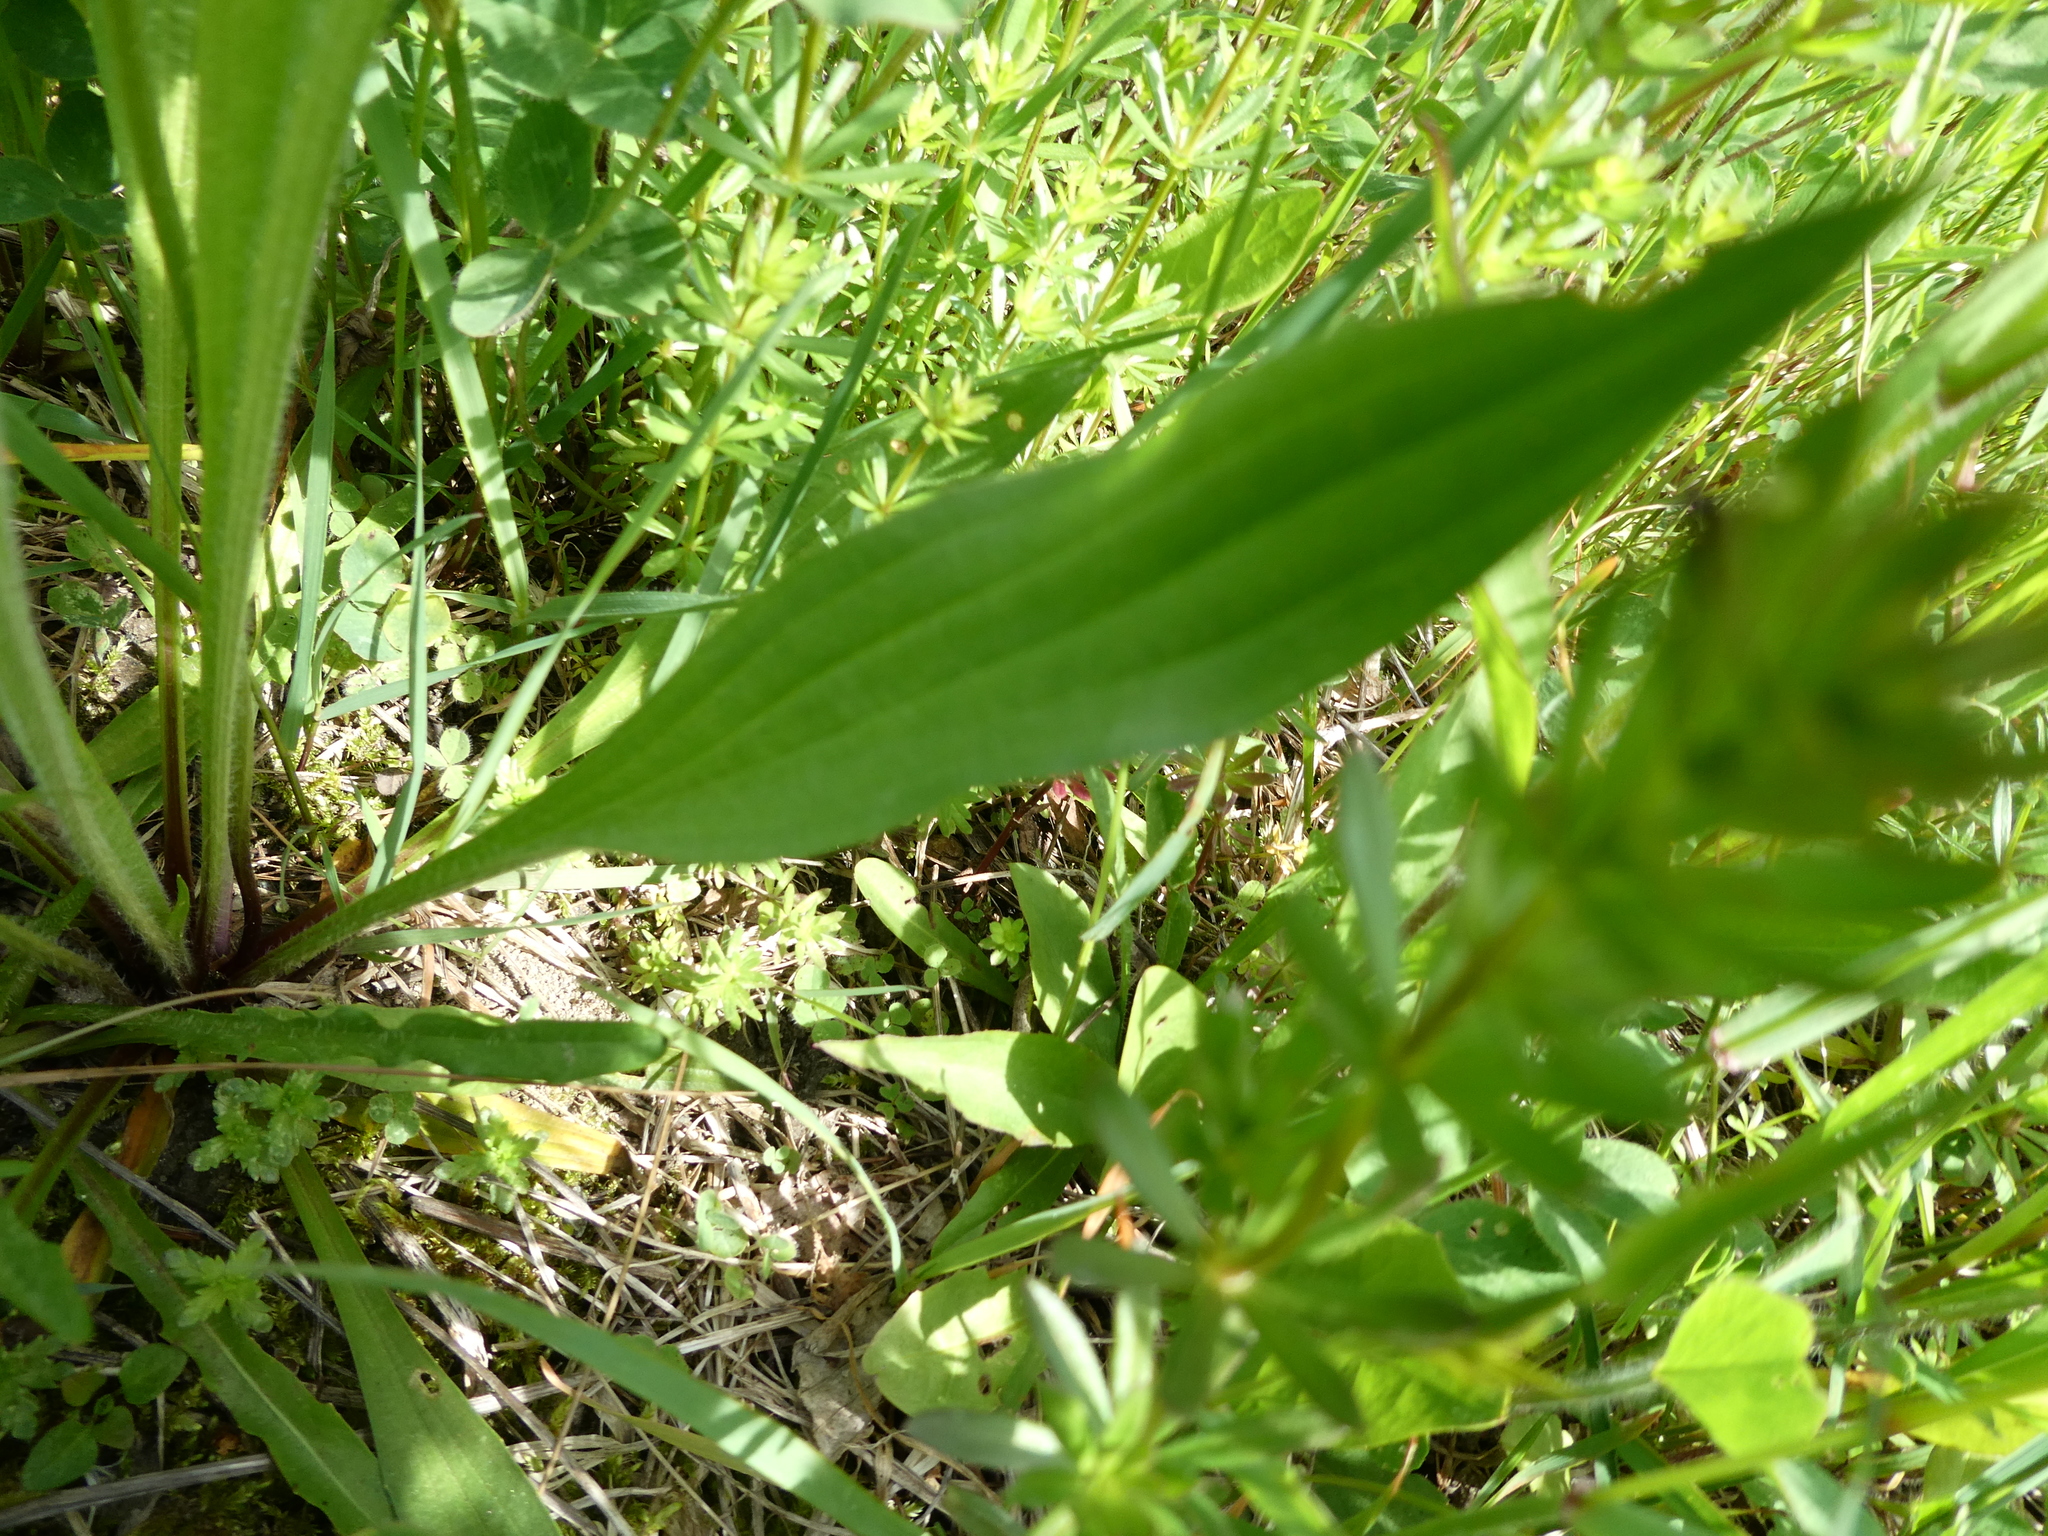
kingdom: Plantae
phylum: Tracheophyta
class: Magnoliopsida
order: Lamiales
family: Plantaginaceae
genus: Plantago
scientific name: Plantago lanceolata
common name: Ribwort plantain
